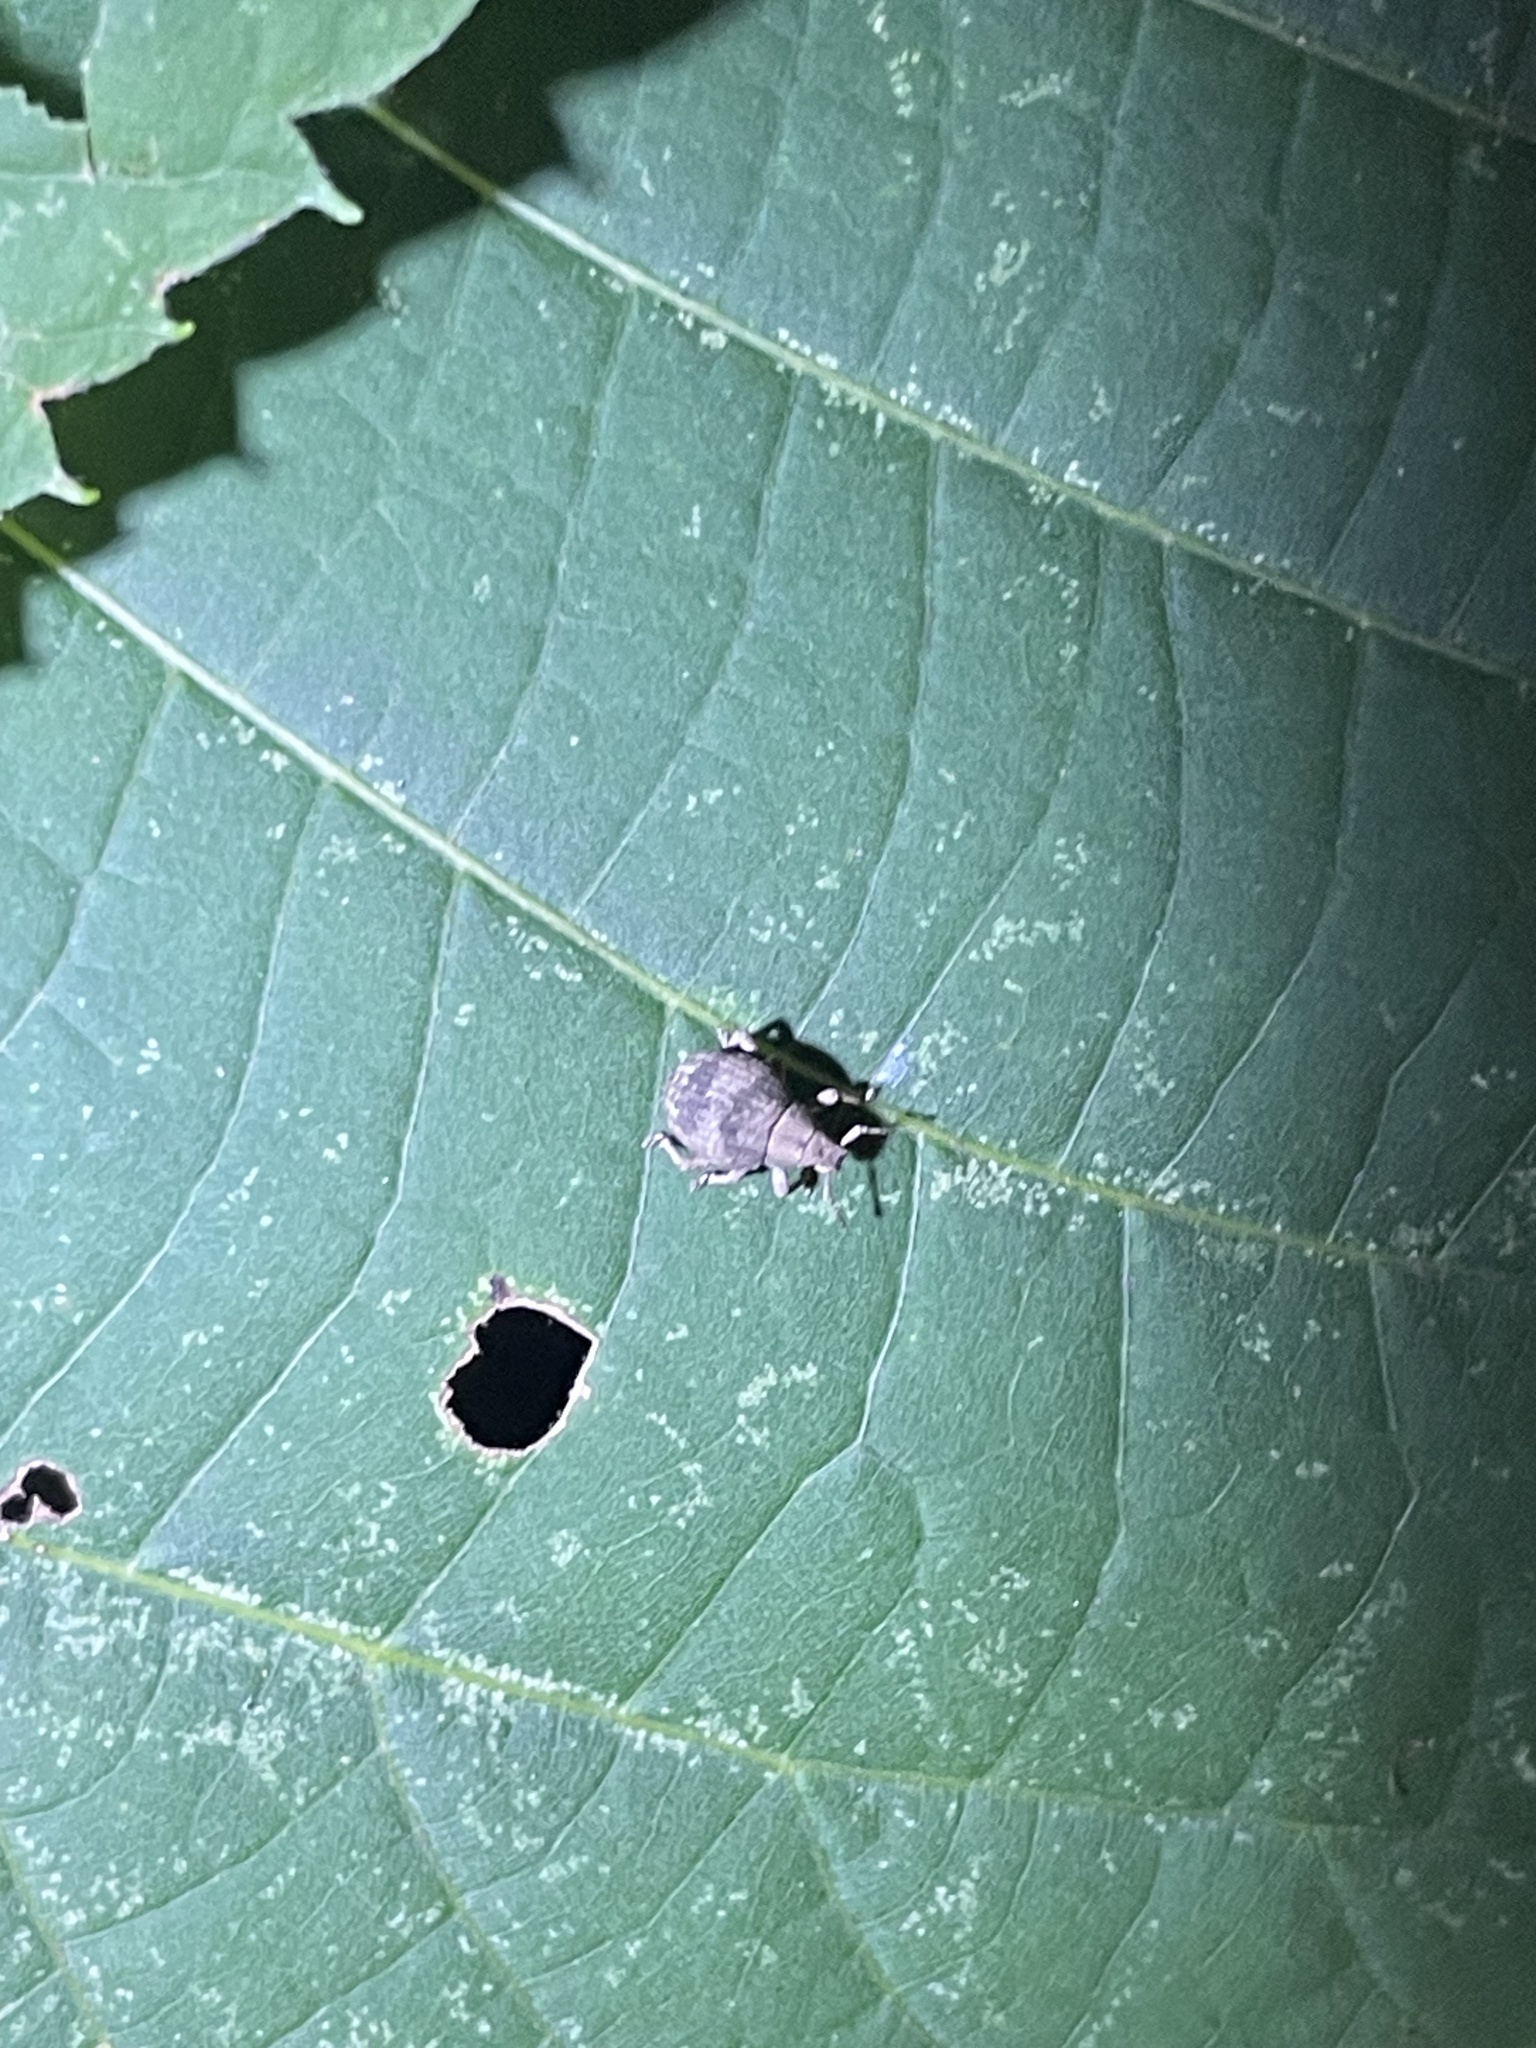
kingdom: Animalia
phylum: Arthropoda
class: Insecta
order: Coleoptera
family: Curculionidae
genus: Pseudocneorhinus
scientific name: Pseudocneorhinus bifasciatus
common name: Two-banded japanese weevil
